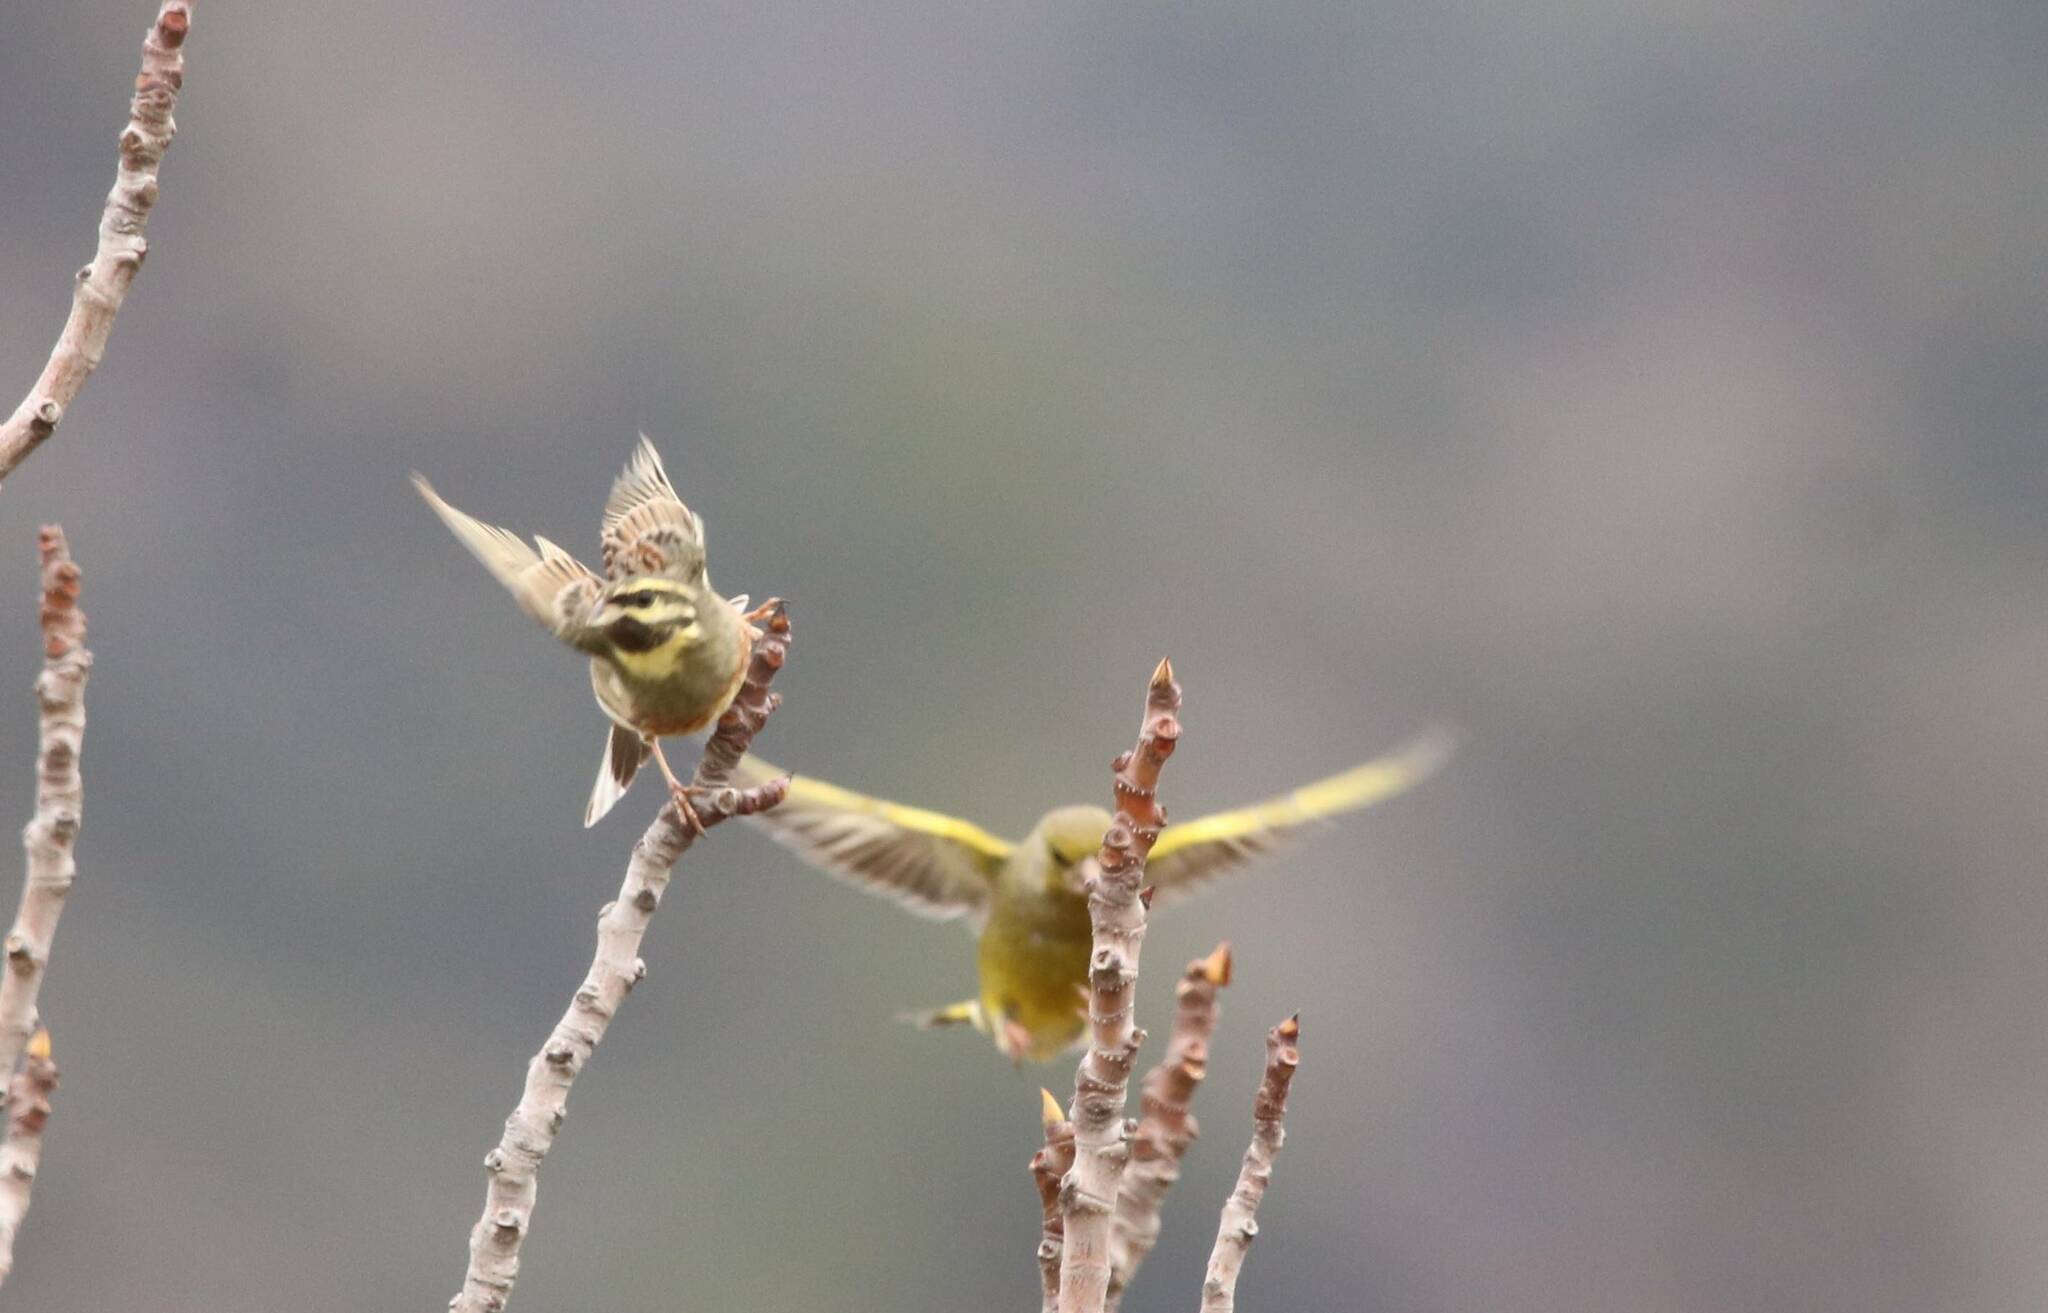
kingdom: Animalia
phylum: Chordata
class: Aves
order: Passeriformes
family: Emberizidae
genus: Emberiza
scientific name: Emberiza cirlus
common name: Cirl bunting
